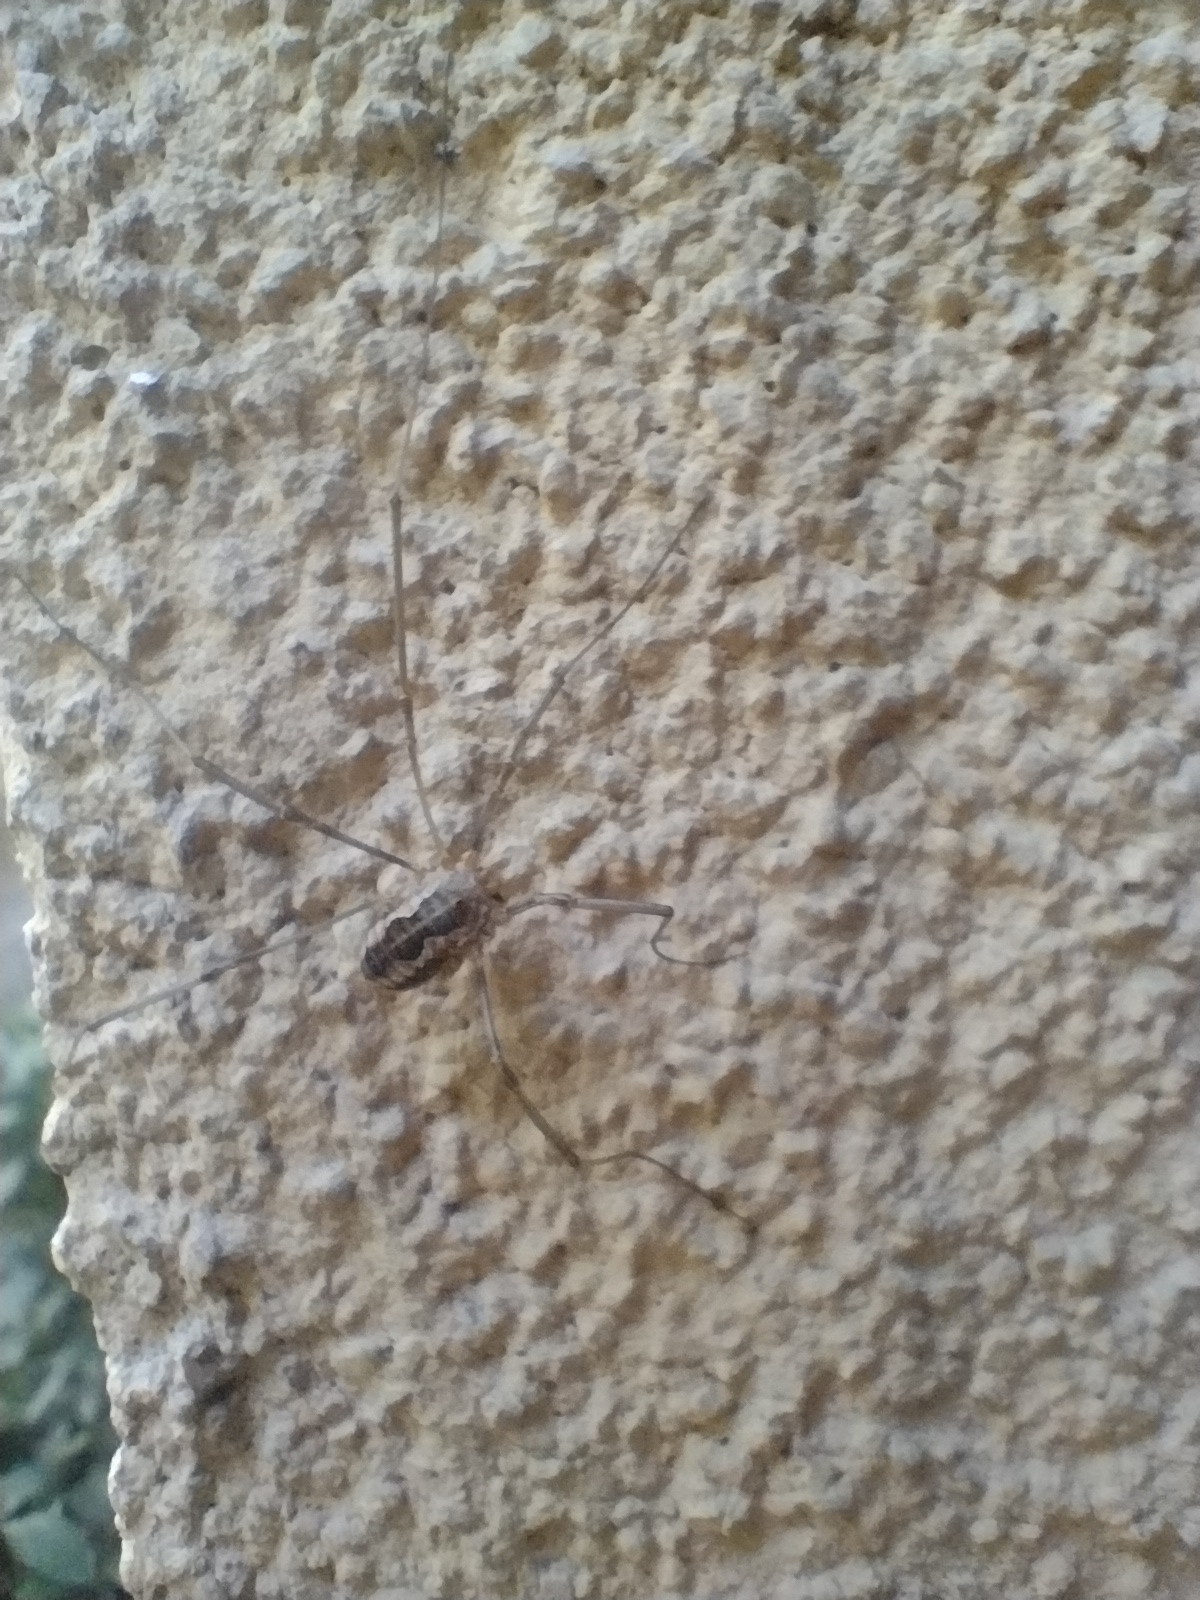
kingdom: Animalia
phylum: Arthropoda
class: Arachnida
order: Opiliones
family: Phalangiidae
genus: Phalangium
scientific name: Phalangium opilio
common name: Daddy longleg
